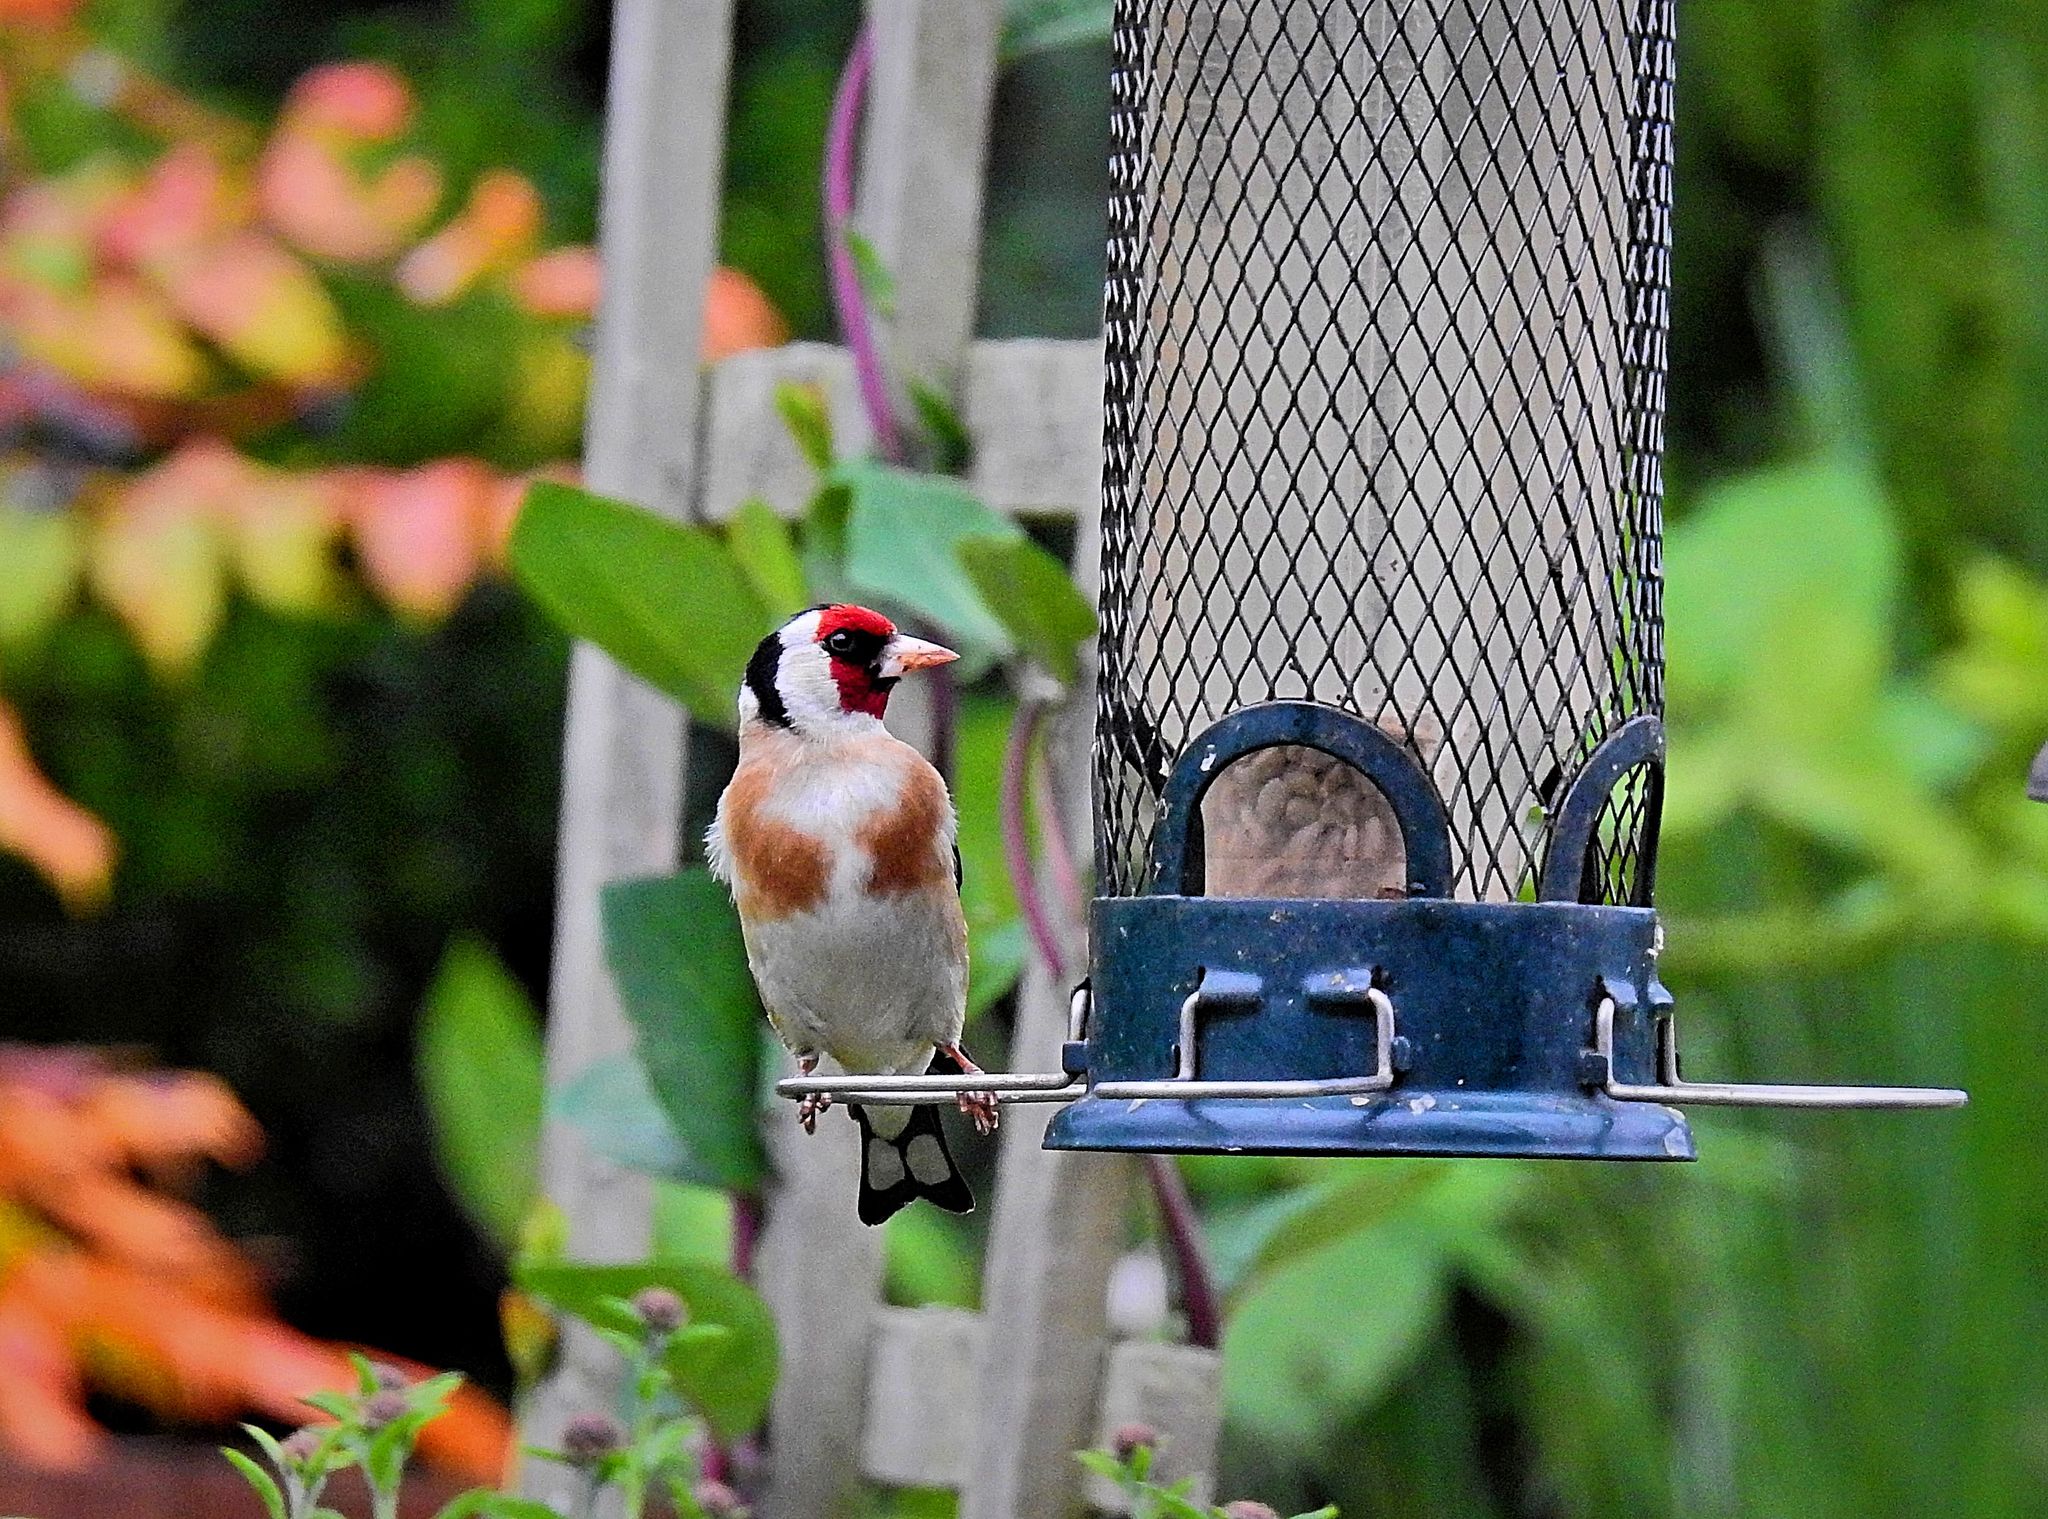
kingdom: Animalia
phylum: Chordata
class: Aves
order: Passeriformes
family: Fringillidae
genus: Carduelis
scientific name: Carduelis carduelis
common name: European goldfinch
